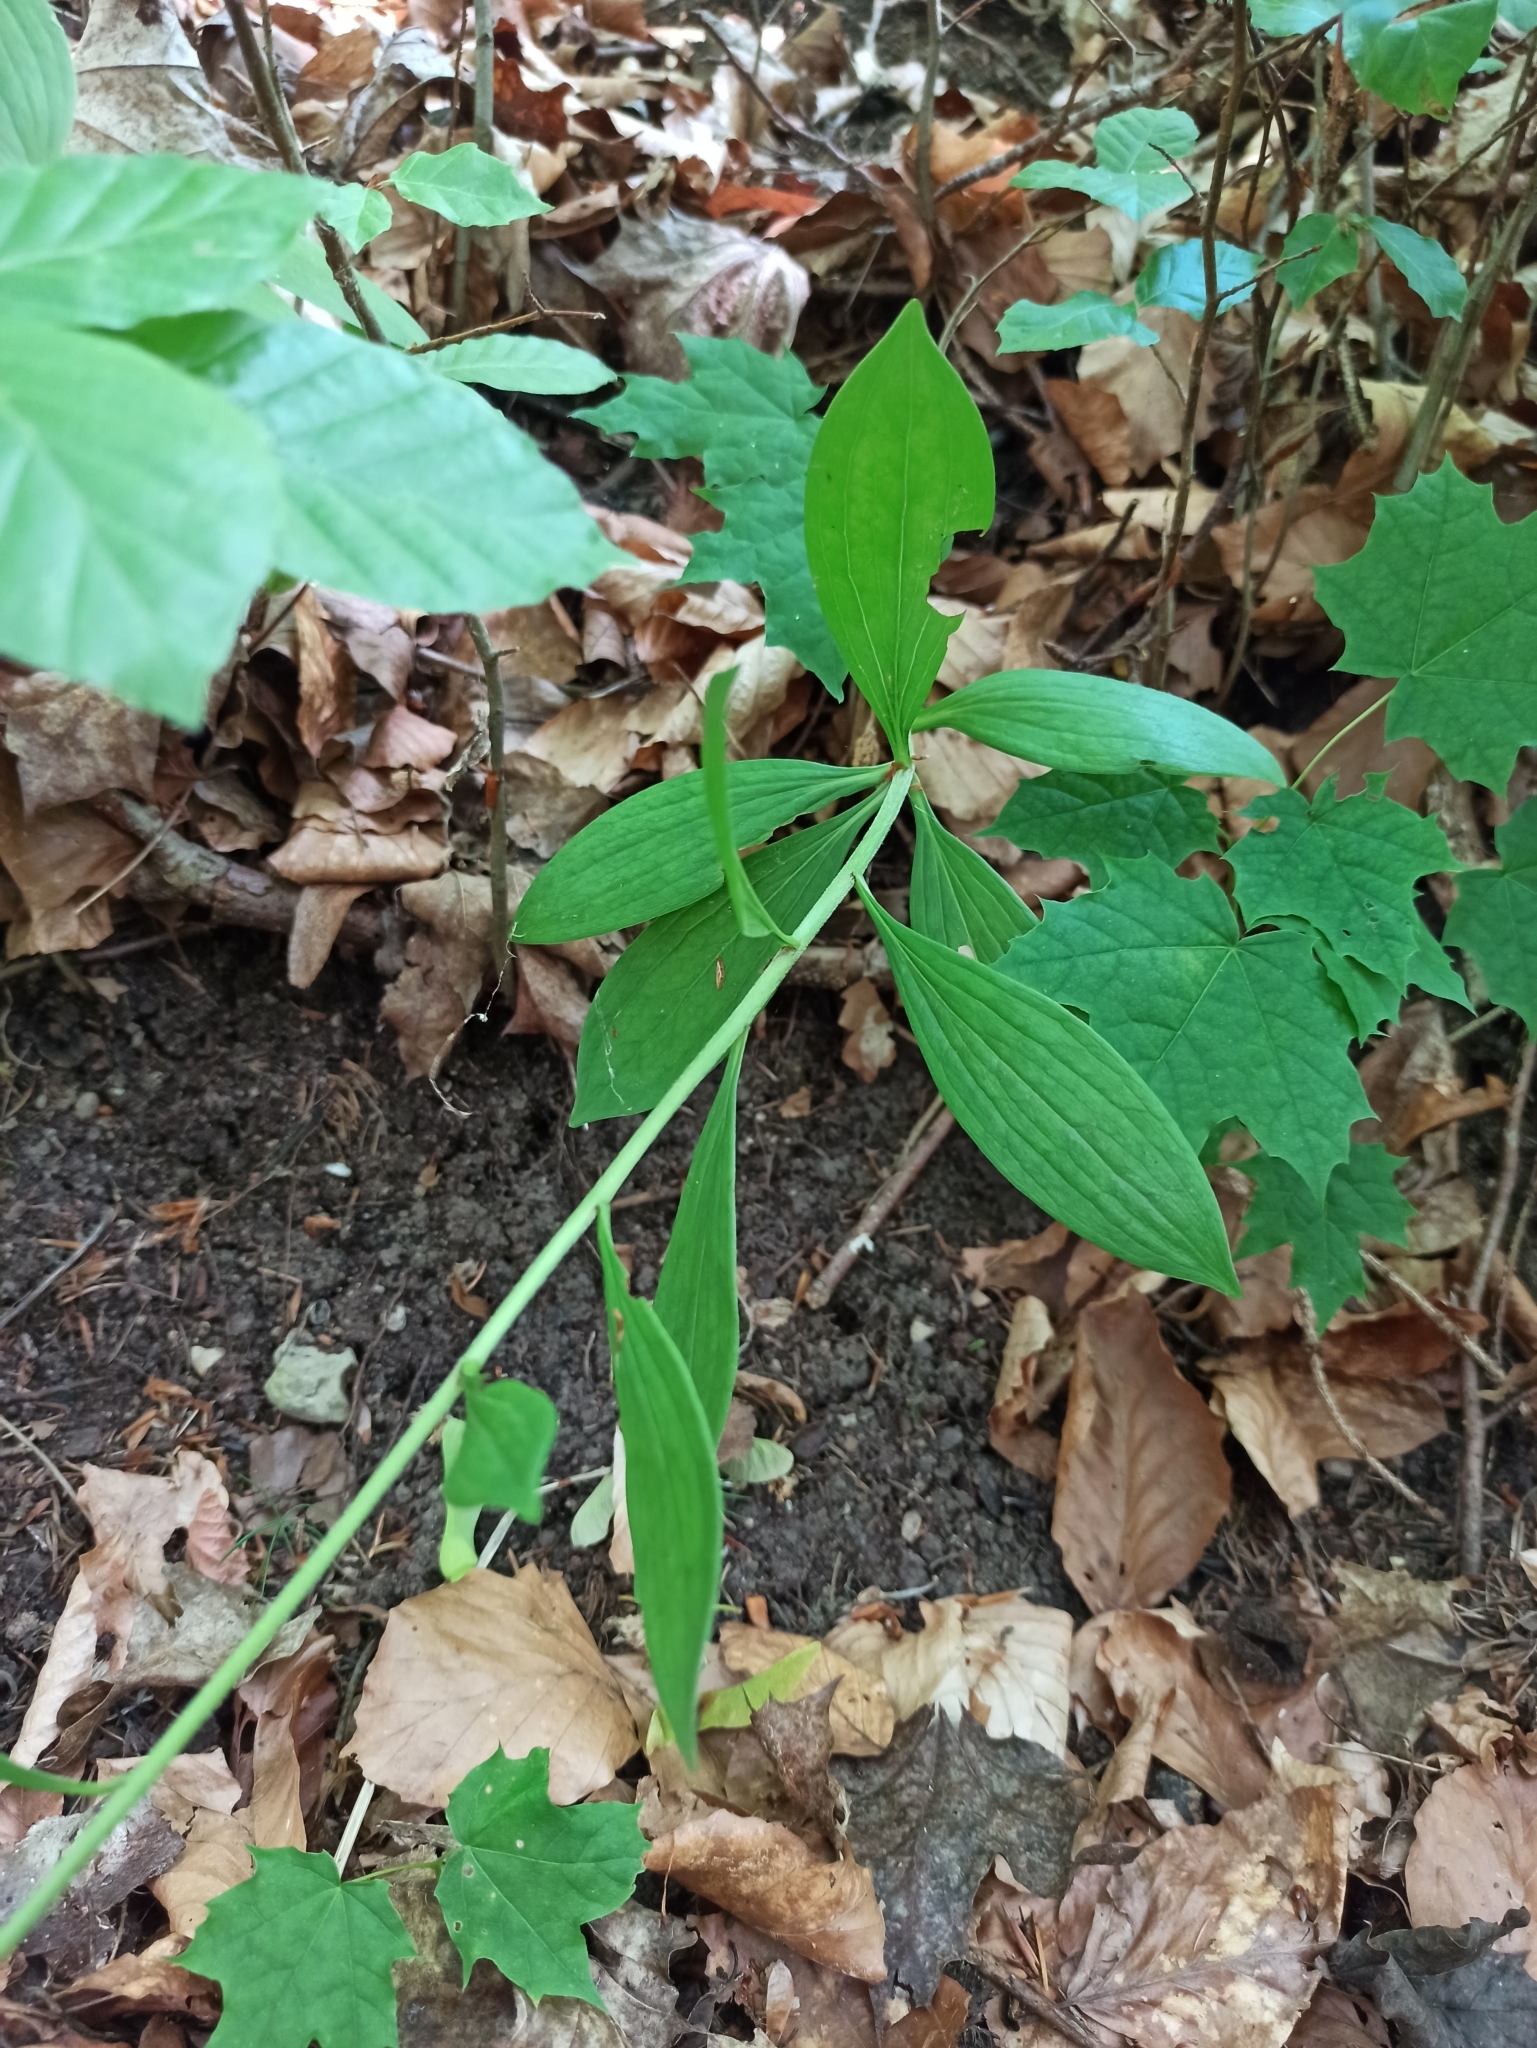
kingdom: Plantae
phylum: Tracheophyta
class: Liliopsida
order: Liliales
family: Liliaceae
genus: Lilium
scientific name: Lilium martagon
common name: Martagon lily
